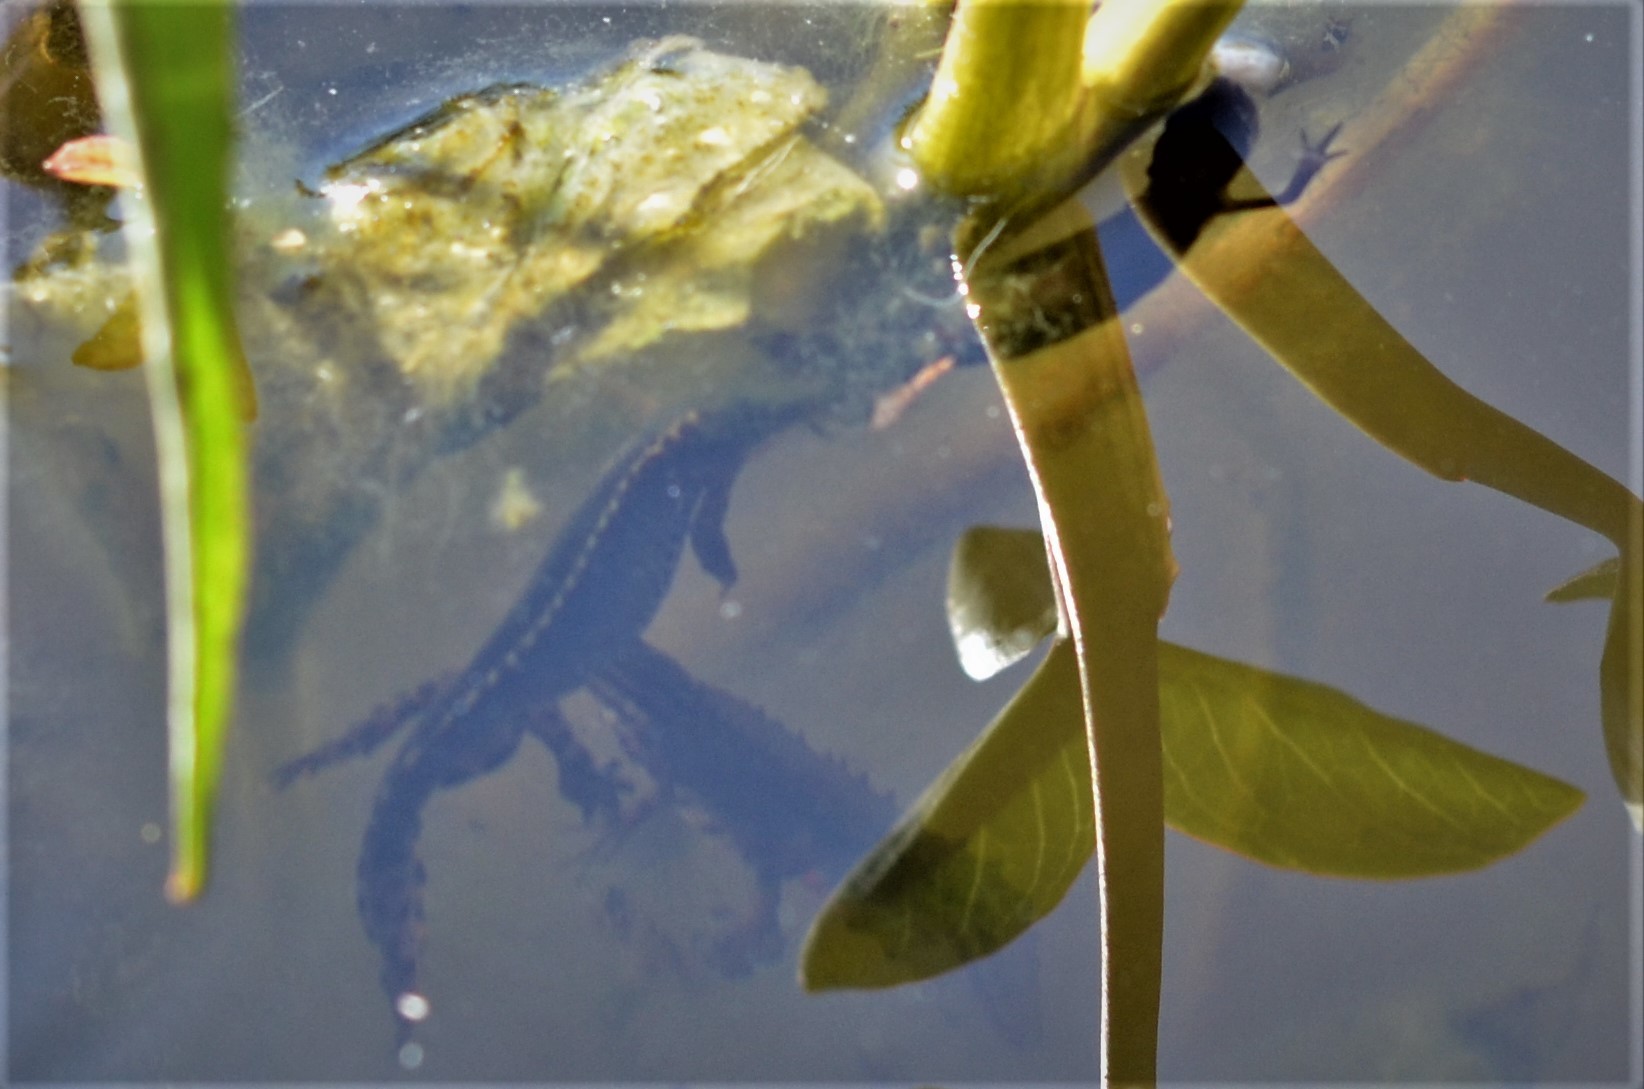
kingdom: Animalia
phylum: Chordata
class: Amphibia
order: Caudata
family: Salamandridae
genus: Ichthyosaura
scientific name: Ichthyosaura alpestris
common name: Alpine newt
